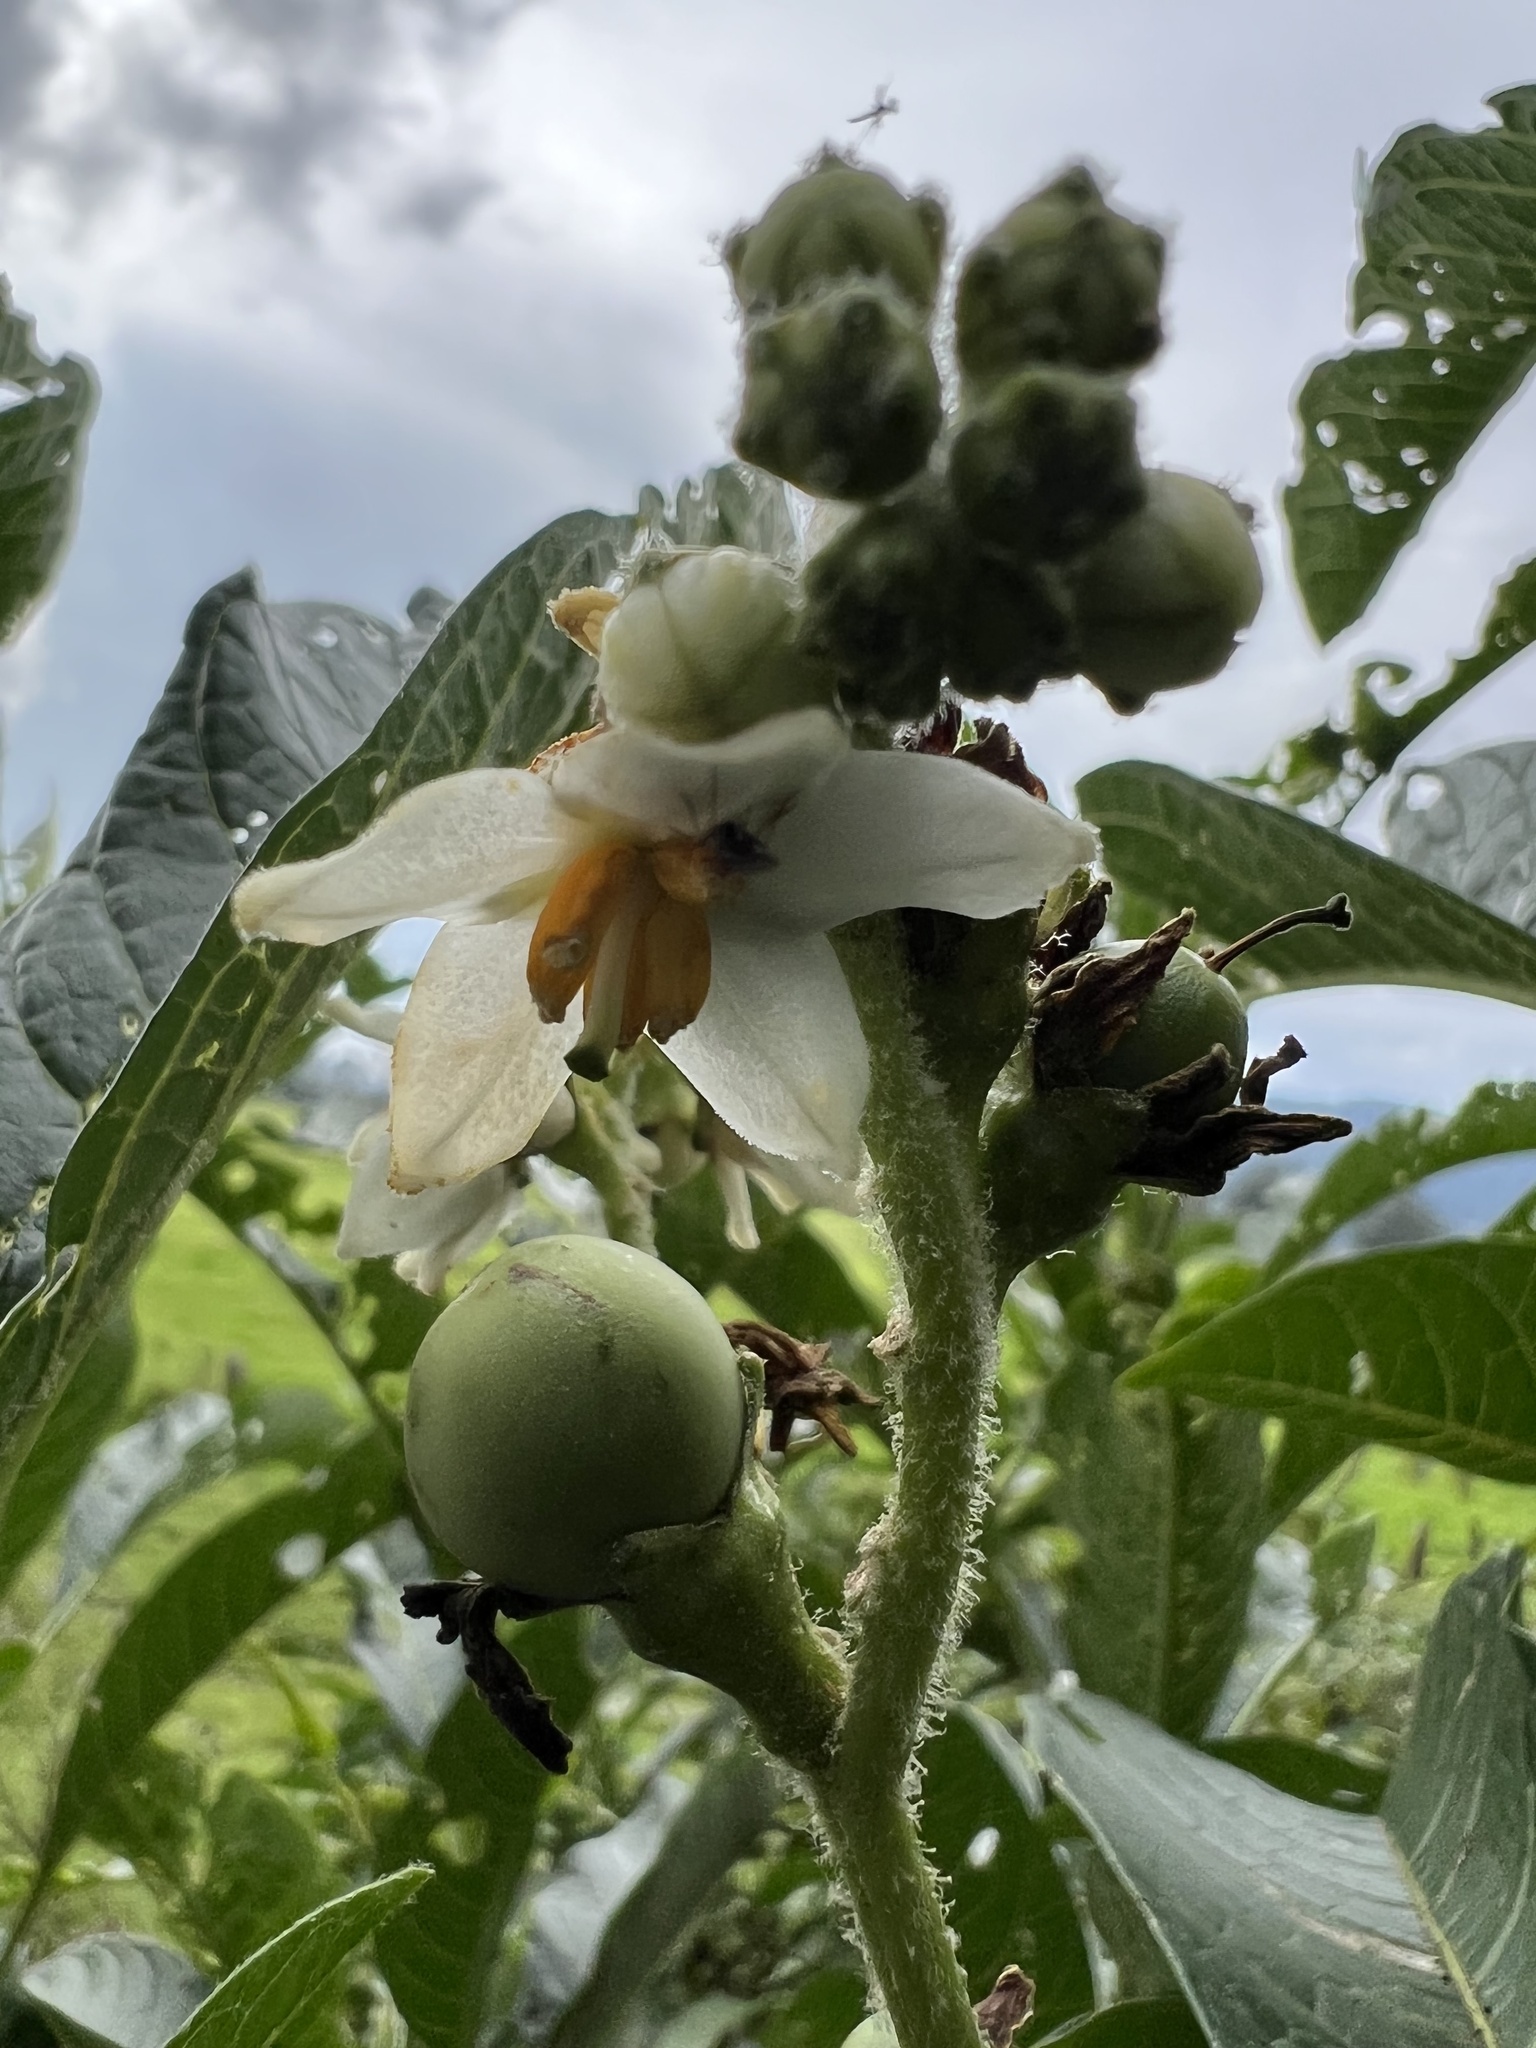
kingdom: Plantae
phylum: Tracheophyta
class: Magnoliopsida
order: Solanales
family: Solanaceae
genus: Solanum
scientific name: Solanum oblongifolium
